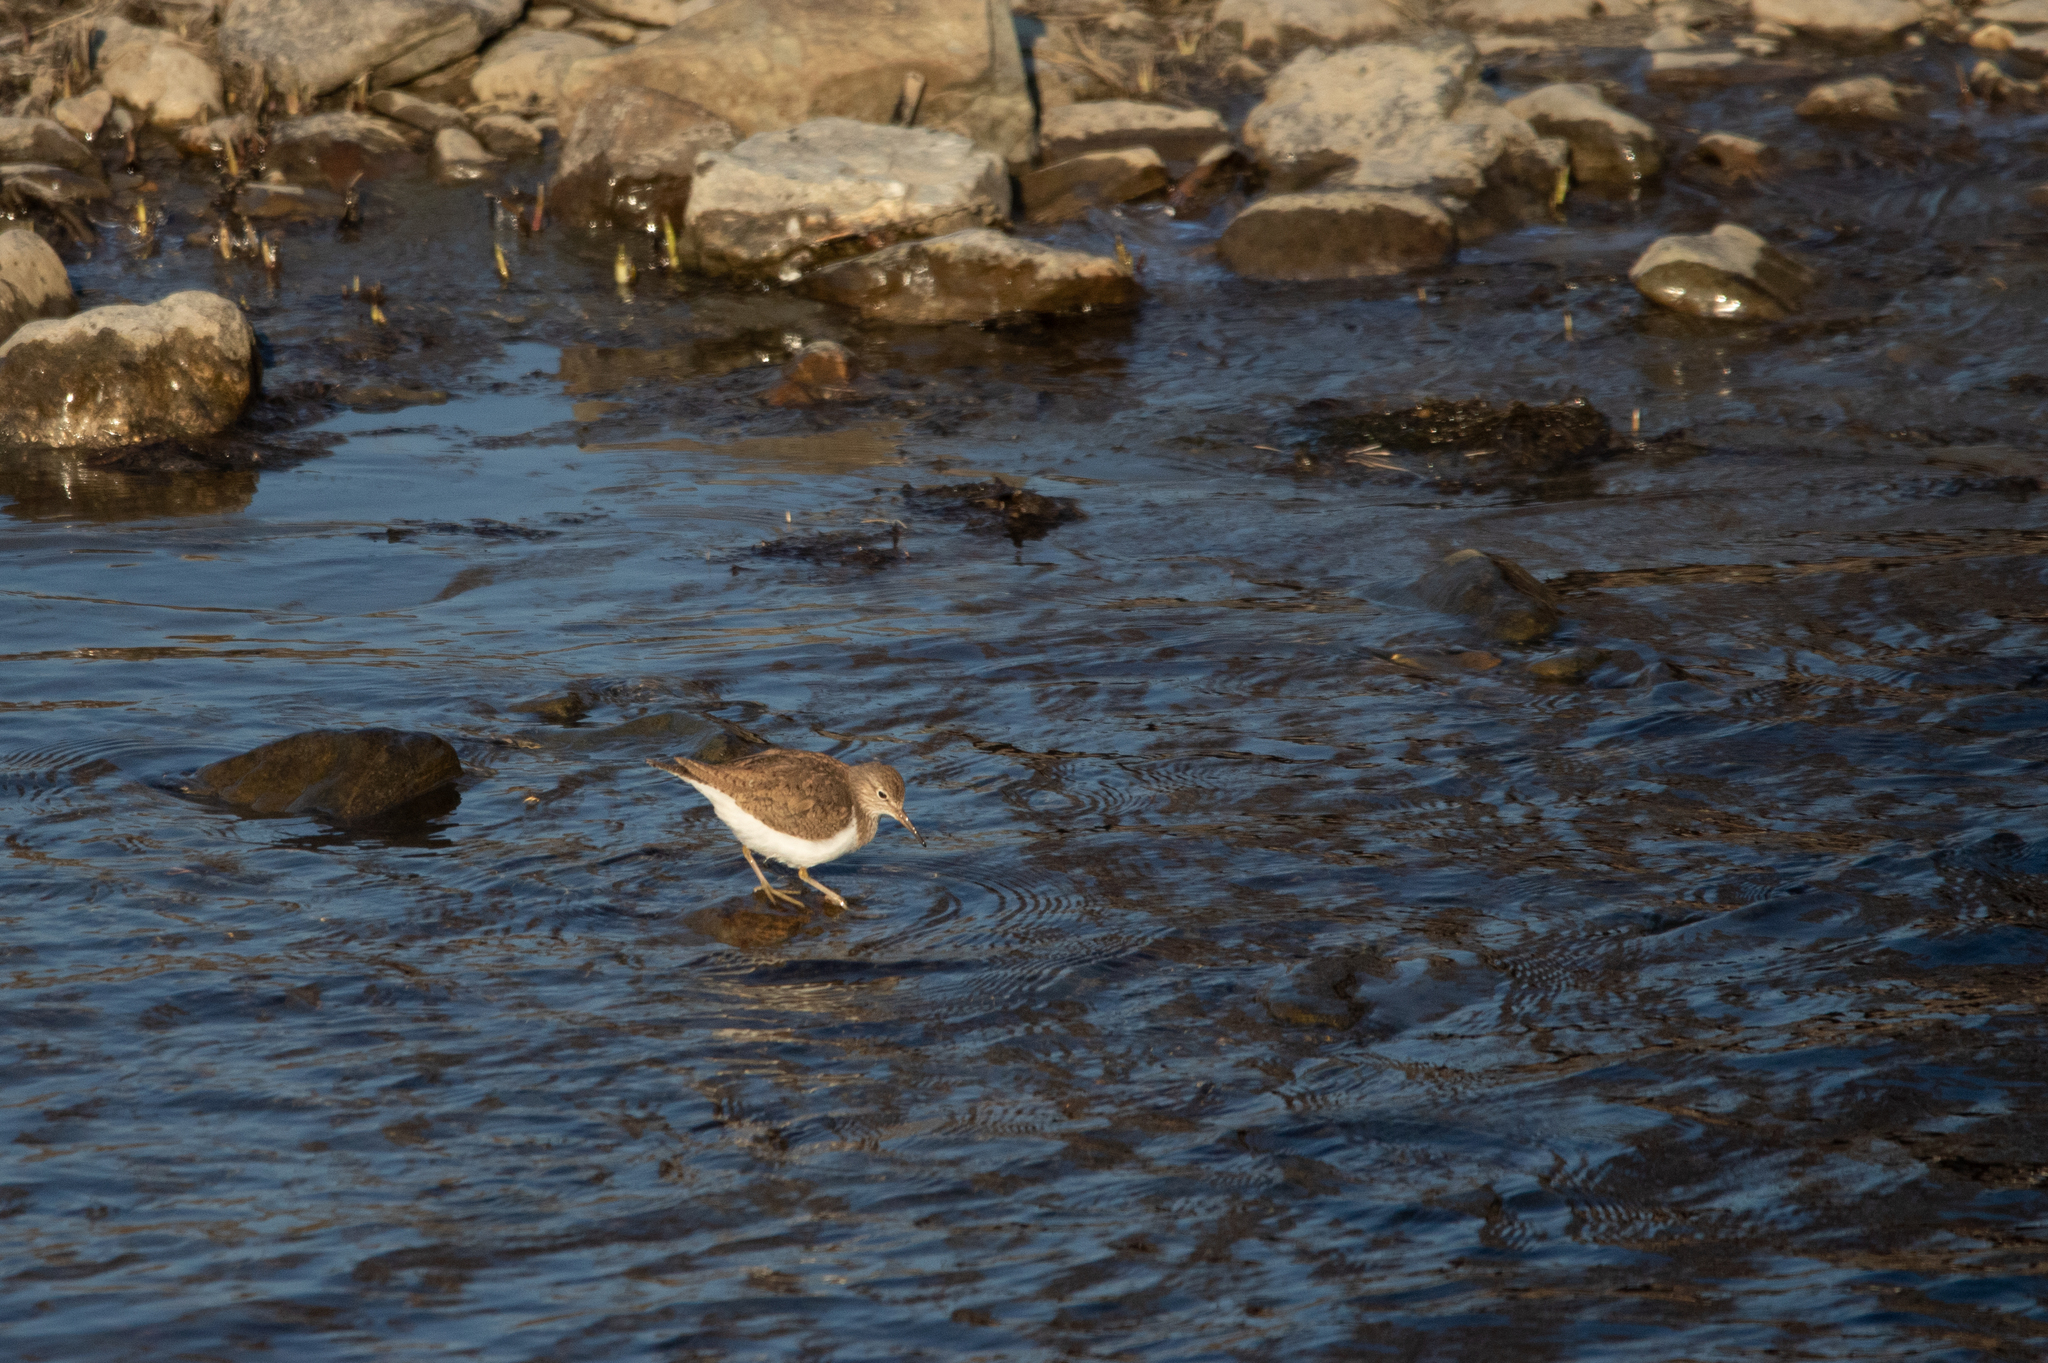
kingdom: Animalia
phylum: Chordata
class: Aves
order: Charadriiformes
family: Scolopacidae
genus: Actitis
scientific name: Actitis hypoleucos
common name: Common sandpiper
